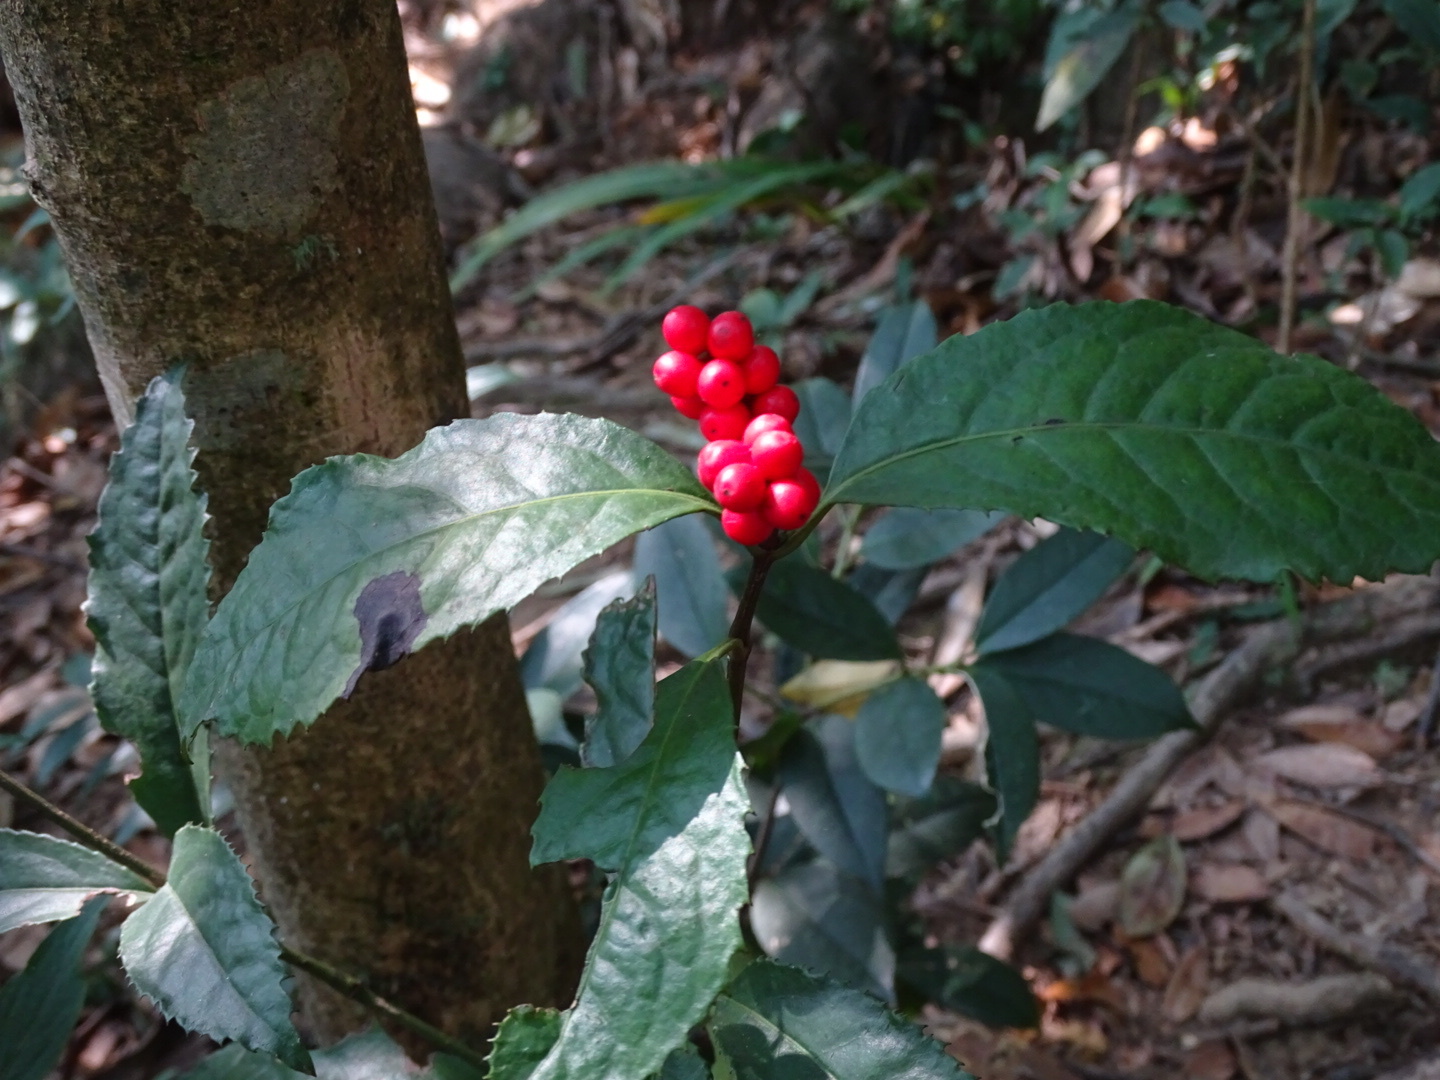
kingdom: Plantae
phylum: Tracheophyta
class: Magnoliopsida
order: Chloranthales
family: Chloranthaceae
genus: Sarcandra
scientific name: Sarcandra glabra
